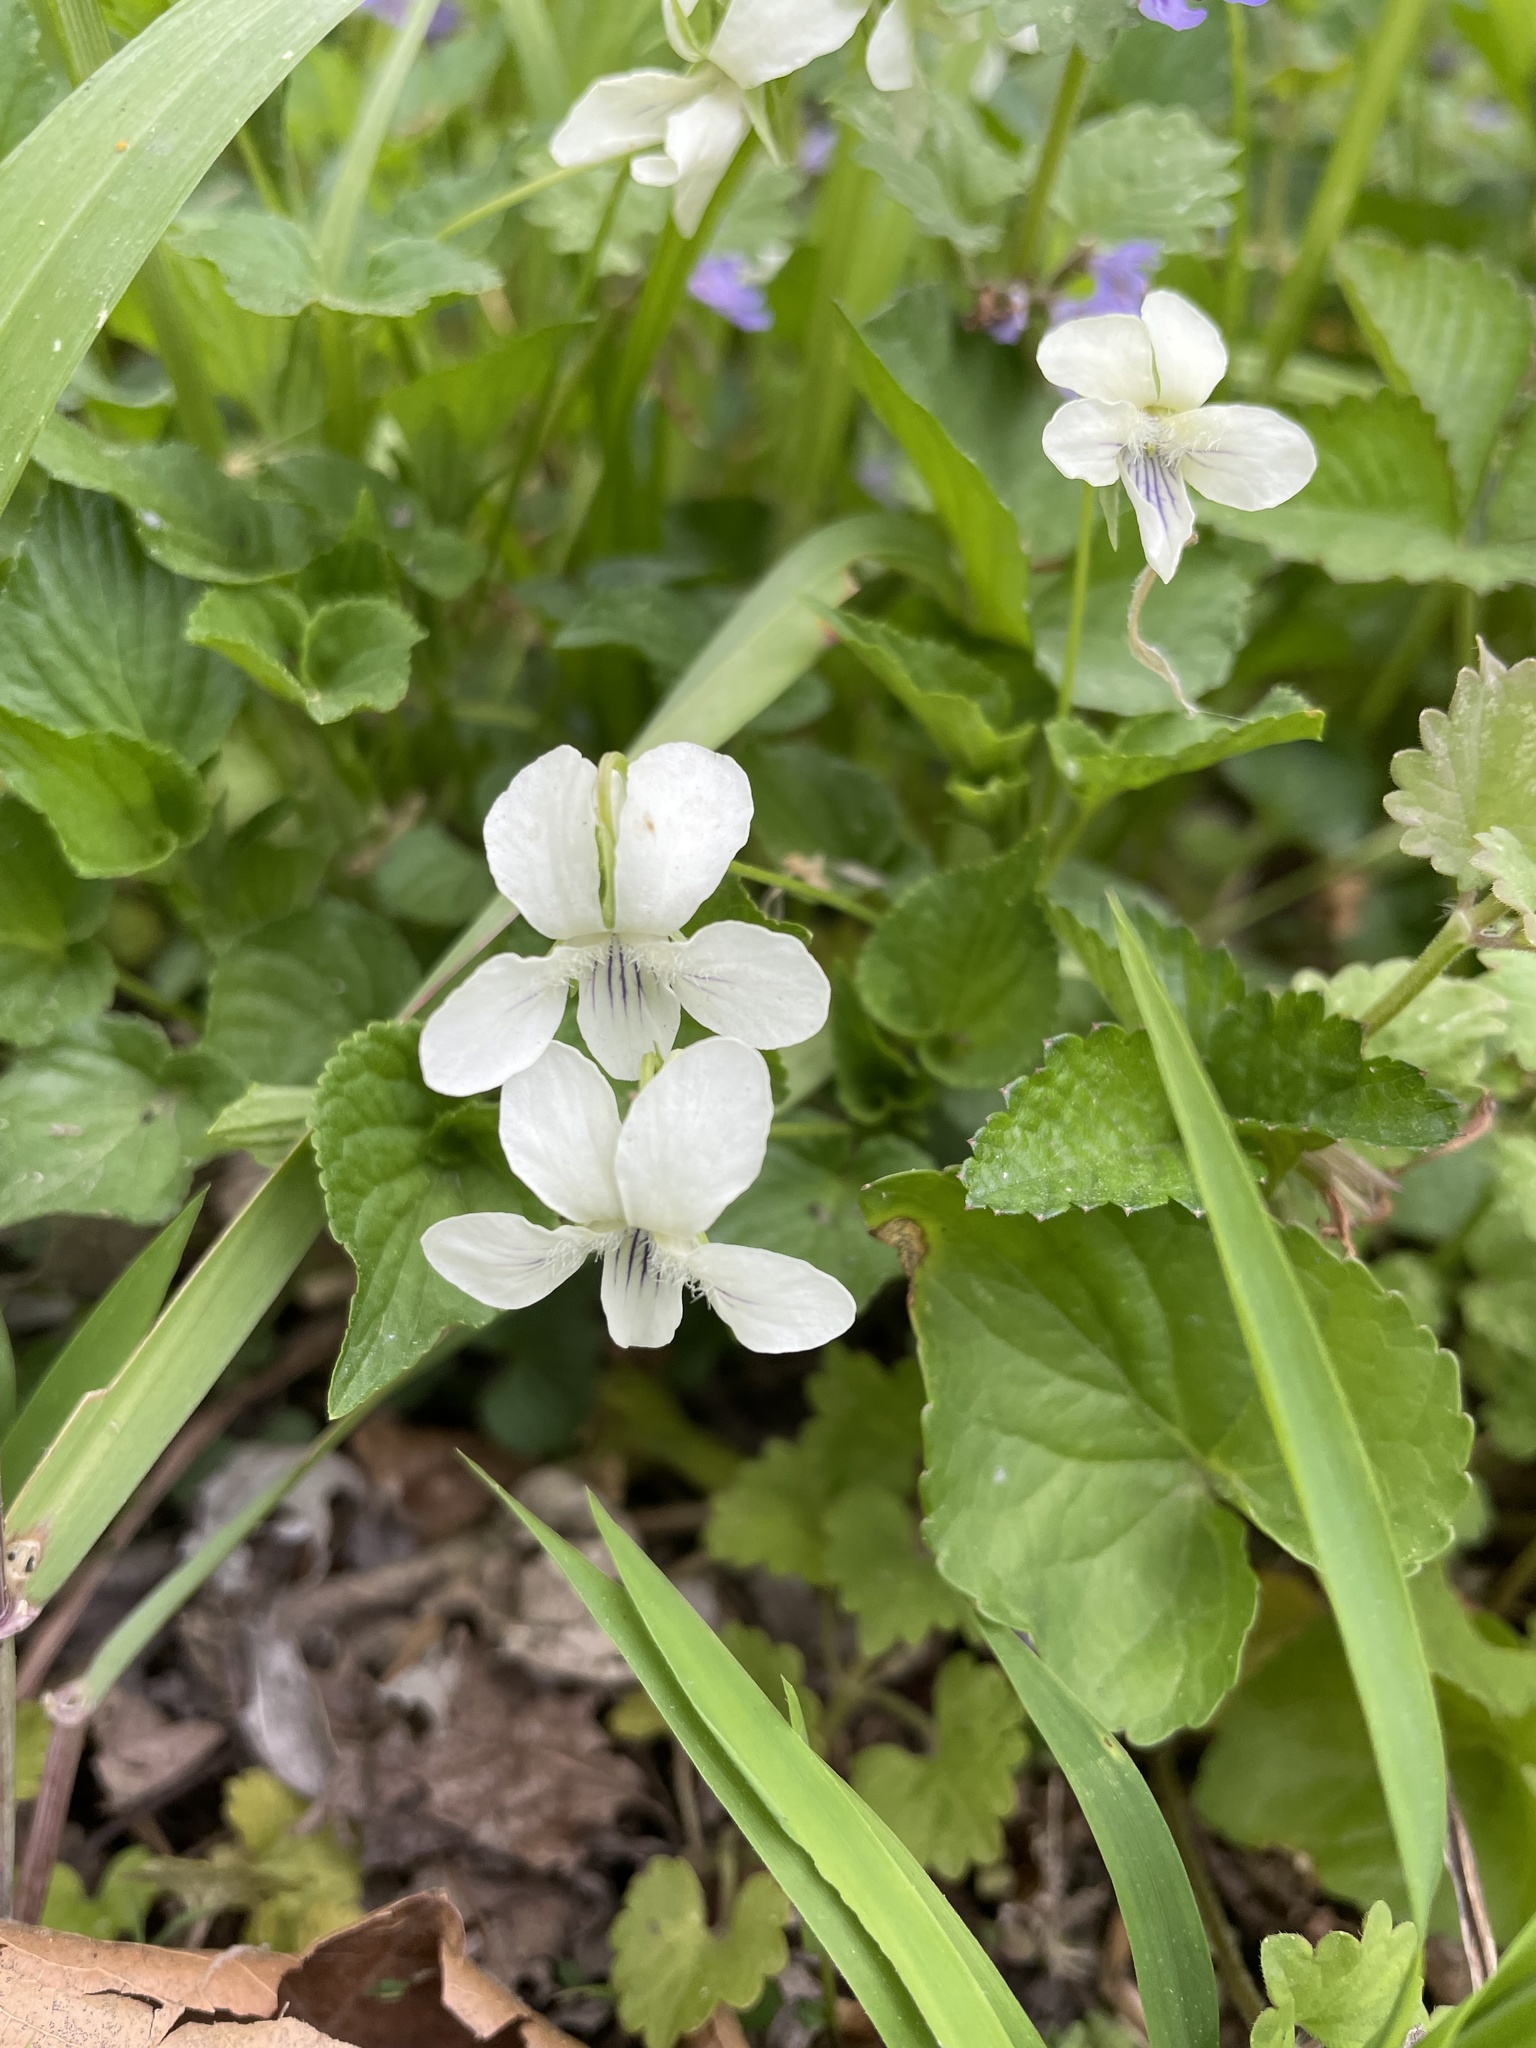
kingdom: Plantae
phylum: Tracheophyta
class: Magnoliopsida
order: Malpighiales
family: Violaceae
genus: Viola
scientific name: Viola striata
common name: Cream violet
